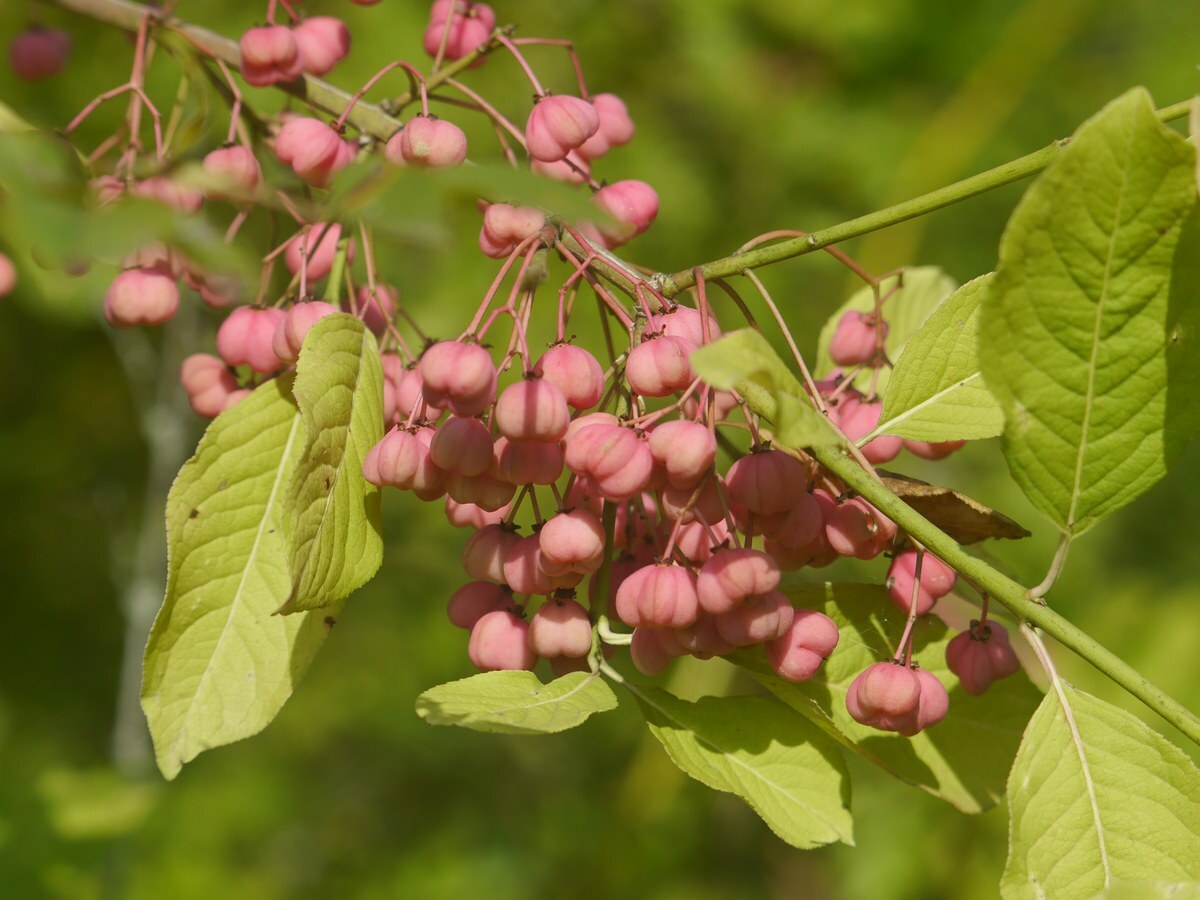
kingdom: Plantae
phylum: Tracheophyta
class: Magnoliopsida
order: Celastrales
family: Celastraceae
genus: Euonymus
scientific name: Euonymus europaeus
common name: Spindle
